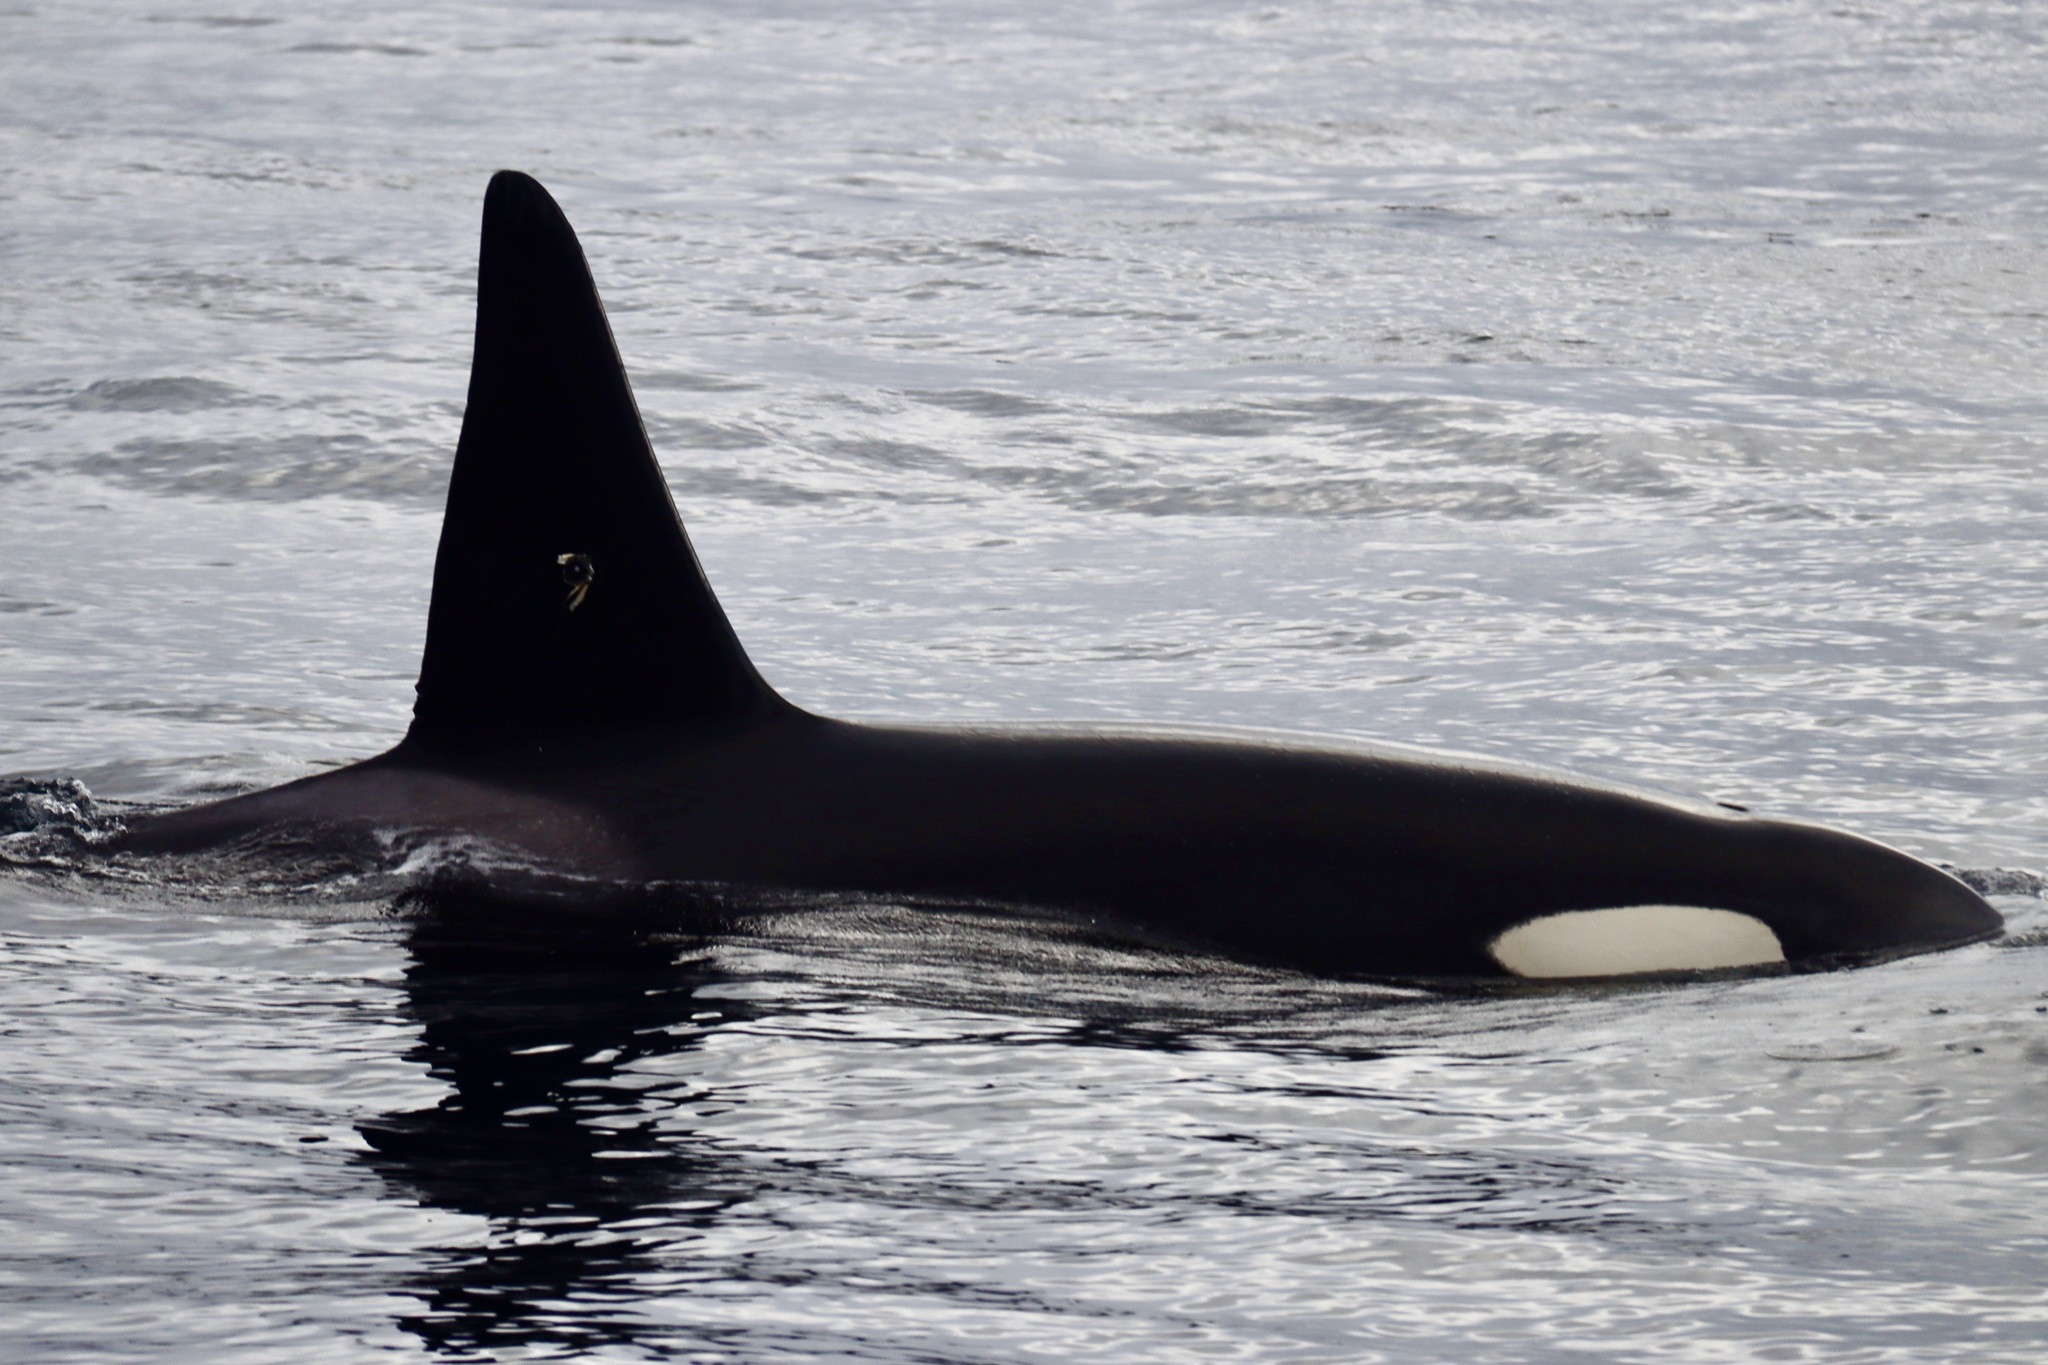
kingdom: Animalia
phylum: Chordata
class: Mammalia
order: Cetacea
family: Delphinidae
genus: Orcinus
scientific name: Orcinus orca
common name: Killer whale
